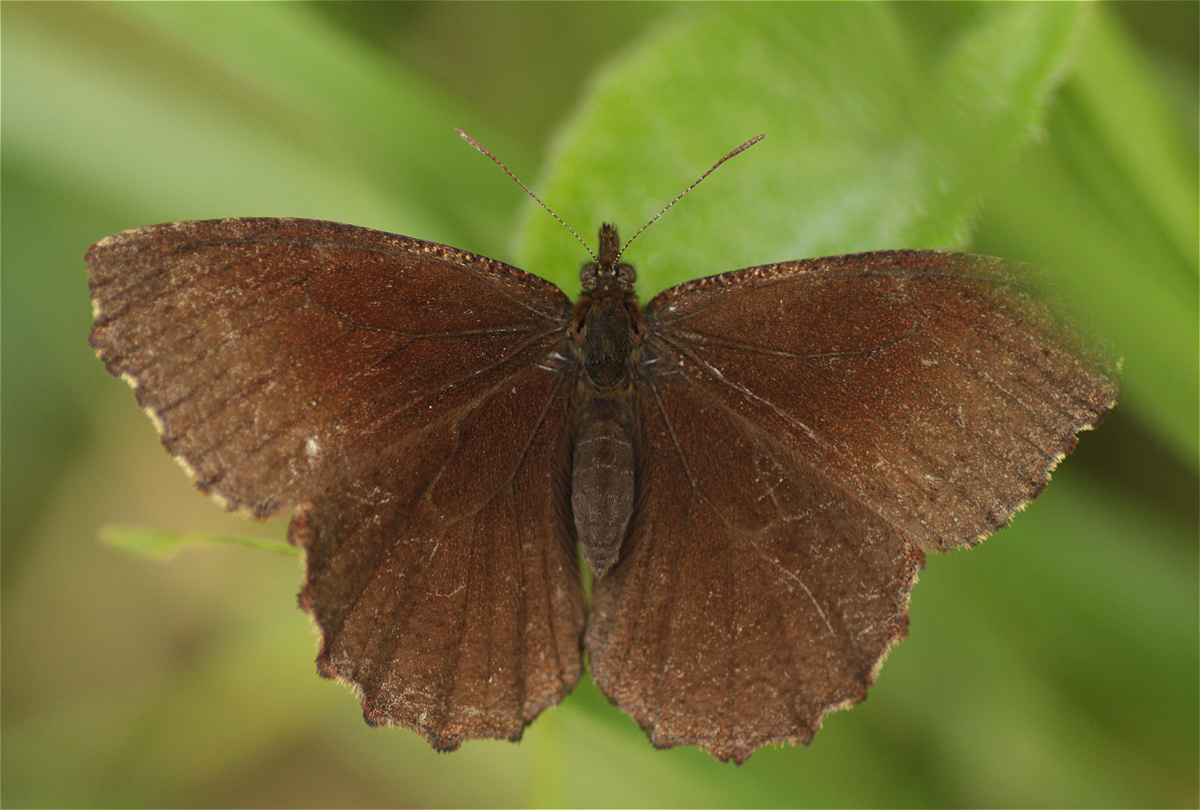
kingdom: Animalia
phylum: Arthropoda
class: Insecta
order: Lepidoptera
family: Nymphalidae
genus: Panyapedaliodes
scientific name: Panyapedaliodes drymaea
